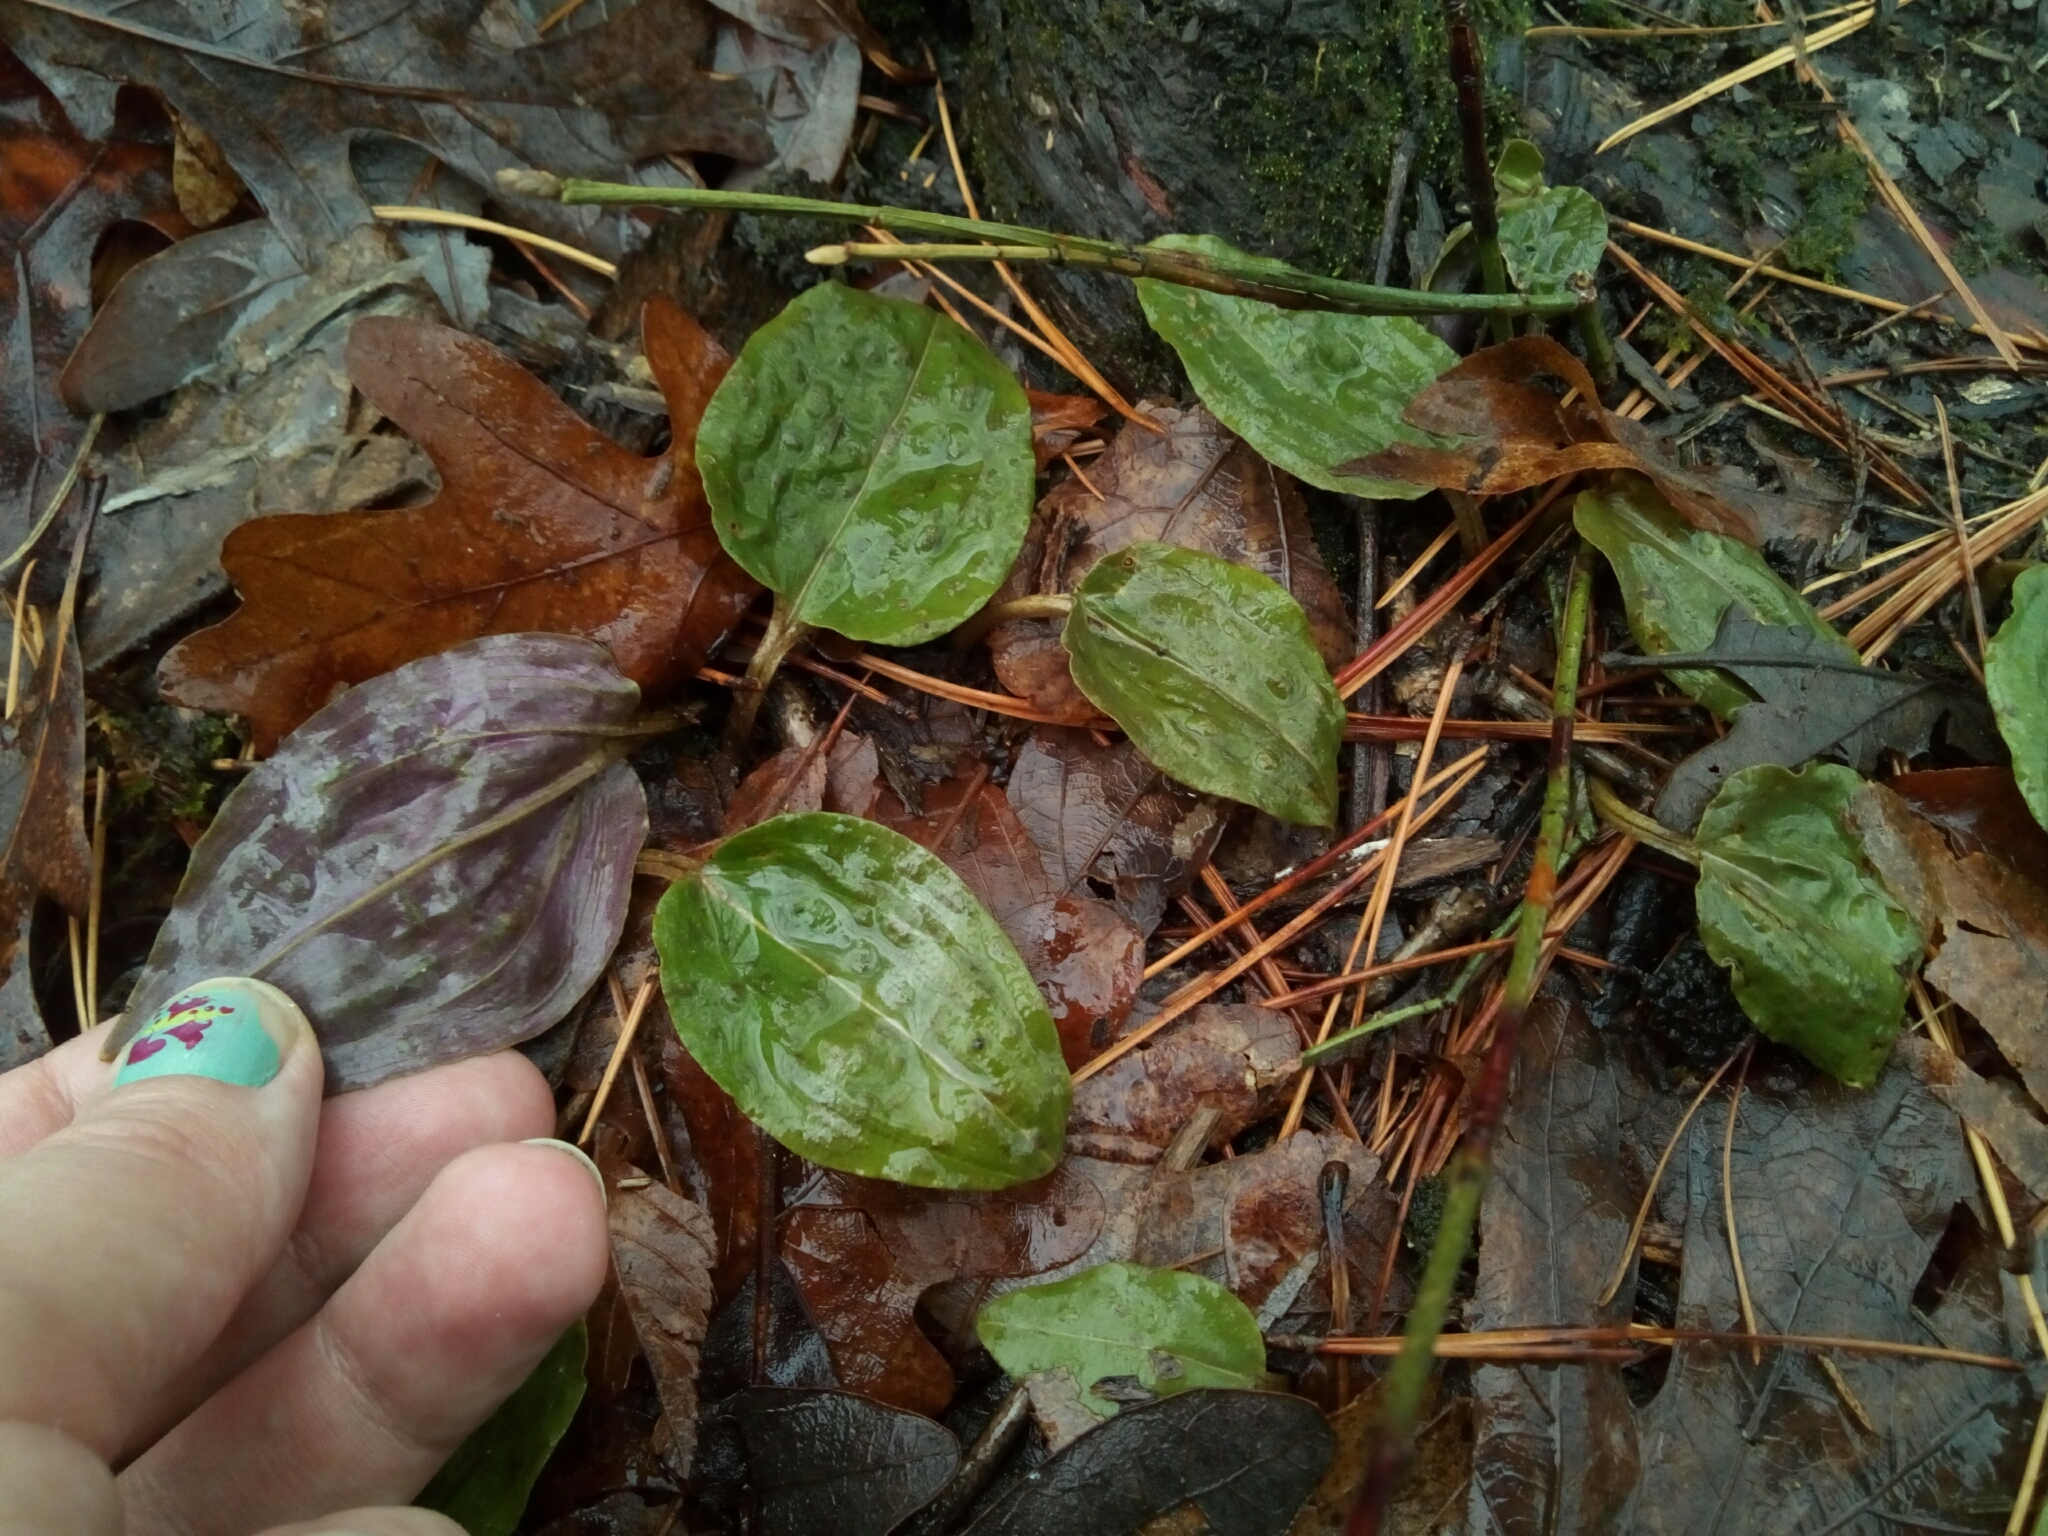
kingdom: Plantae
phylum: Tracheophyta
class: Liliopsida
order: Asparagales
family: Orchidaceae
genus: Tipularia
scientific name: Tipularia discolor
